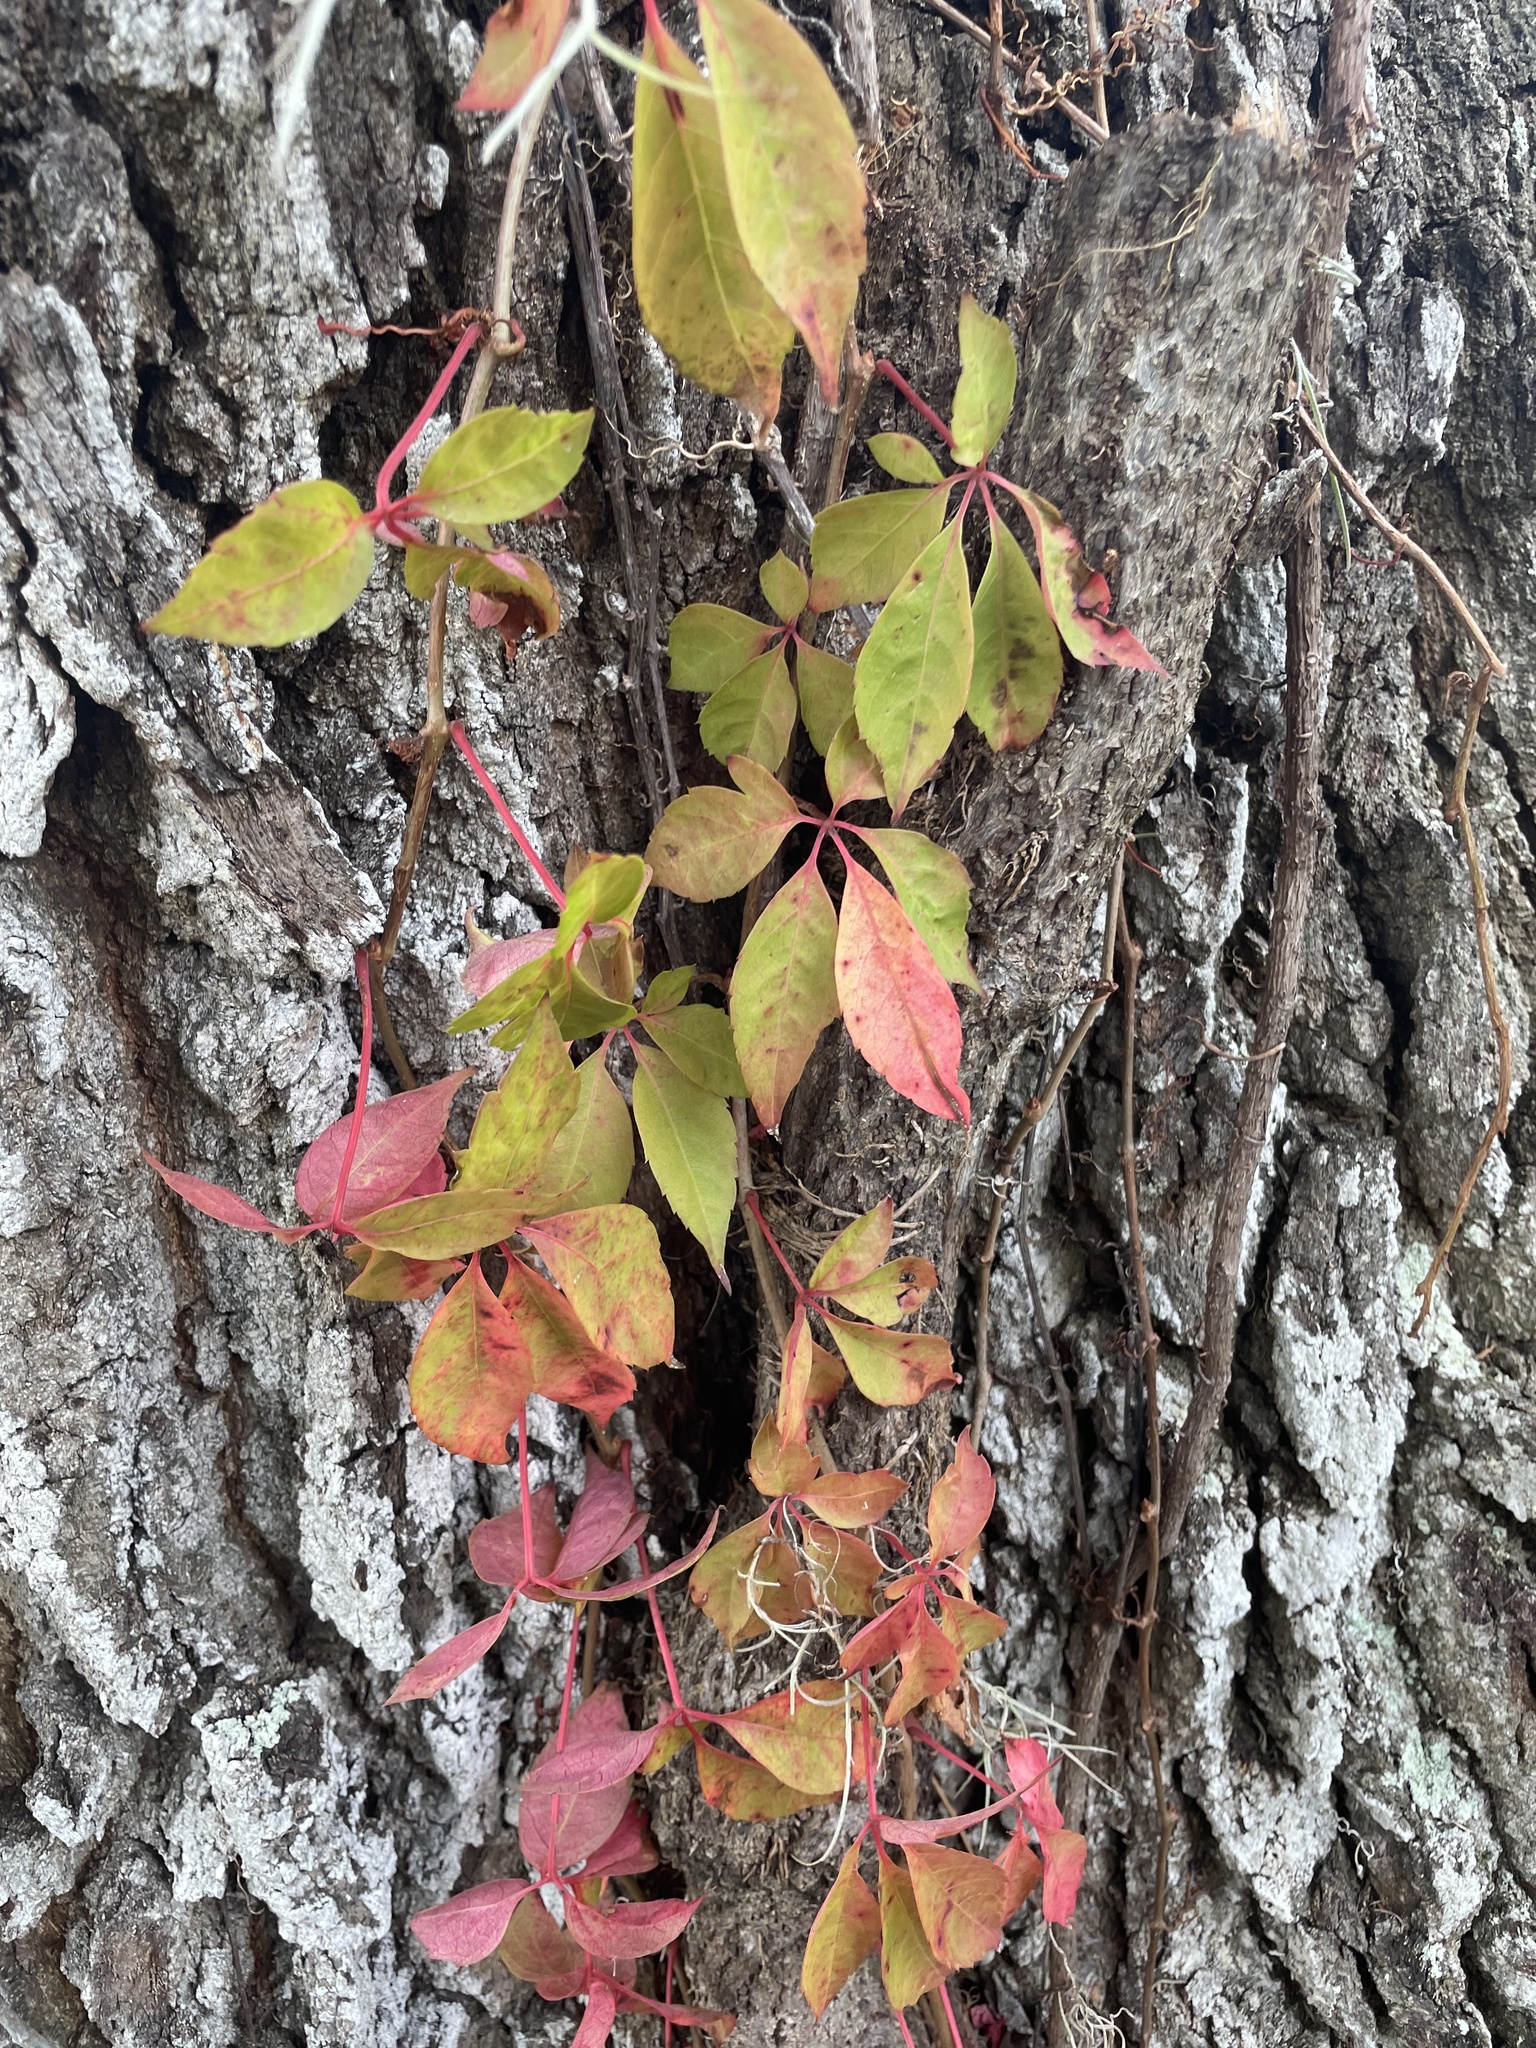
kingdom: Plantae
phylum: Tracheophyta
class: Magnoliopsida
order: Vitales
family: Vitaceae
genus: Parthenocissus
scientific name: Parthenocissus quinquefolia
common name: Virginia-creeper
